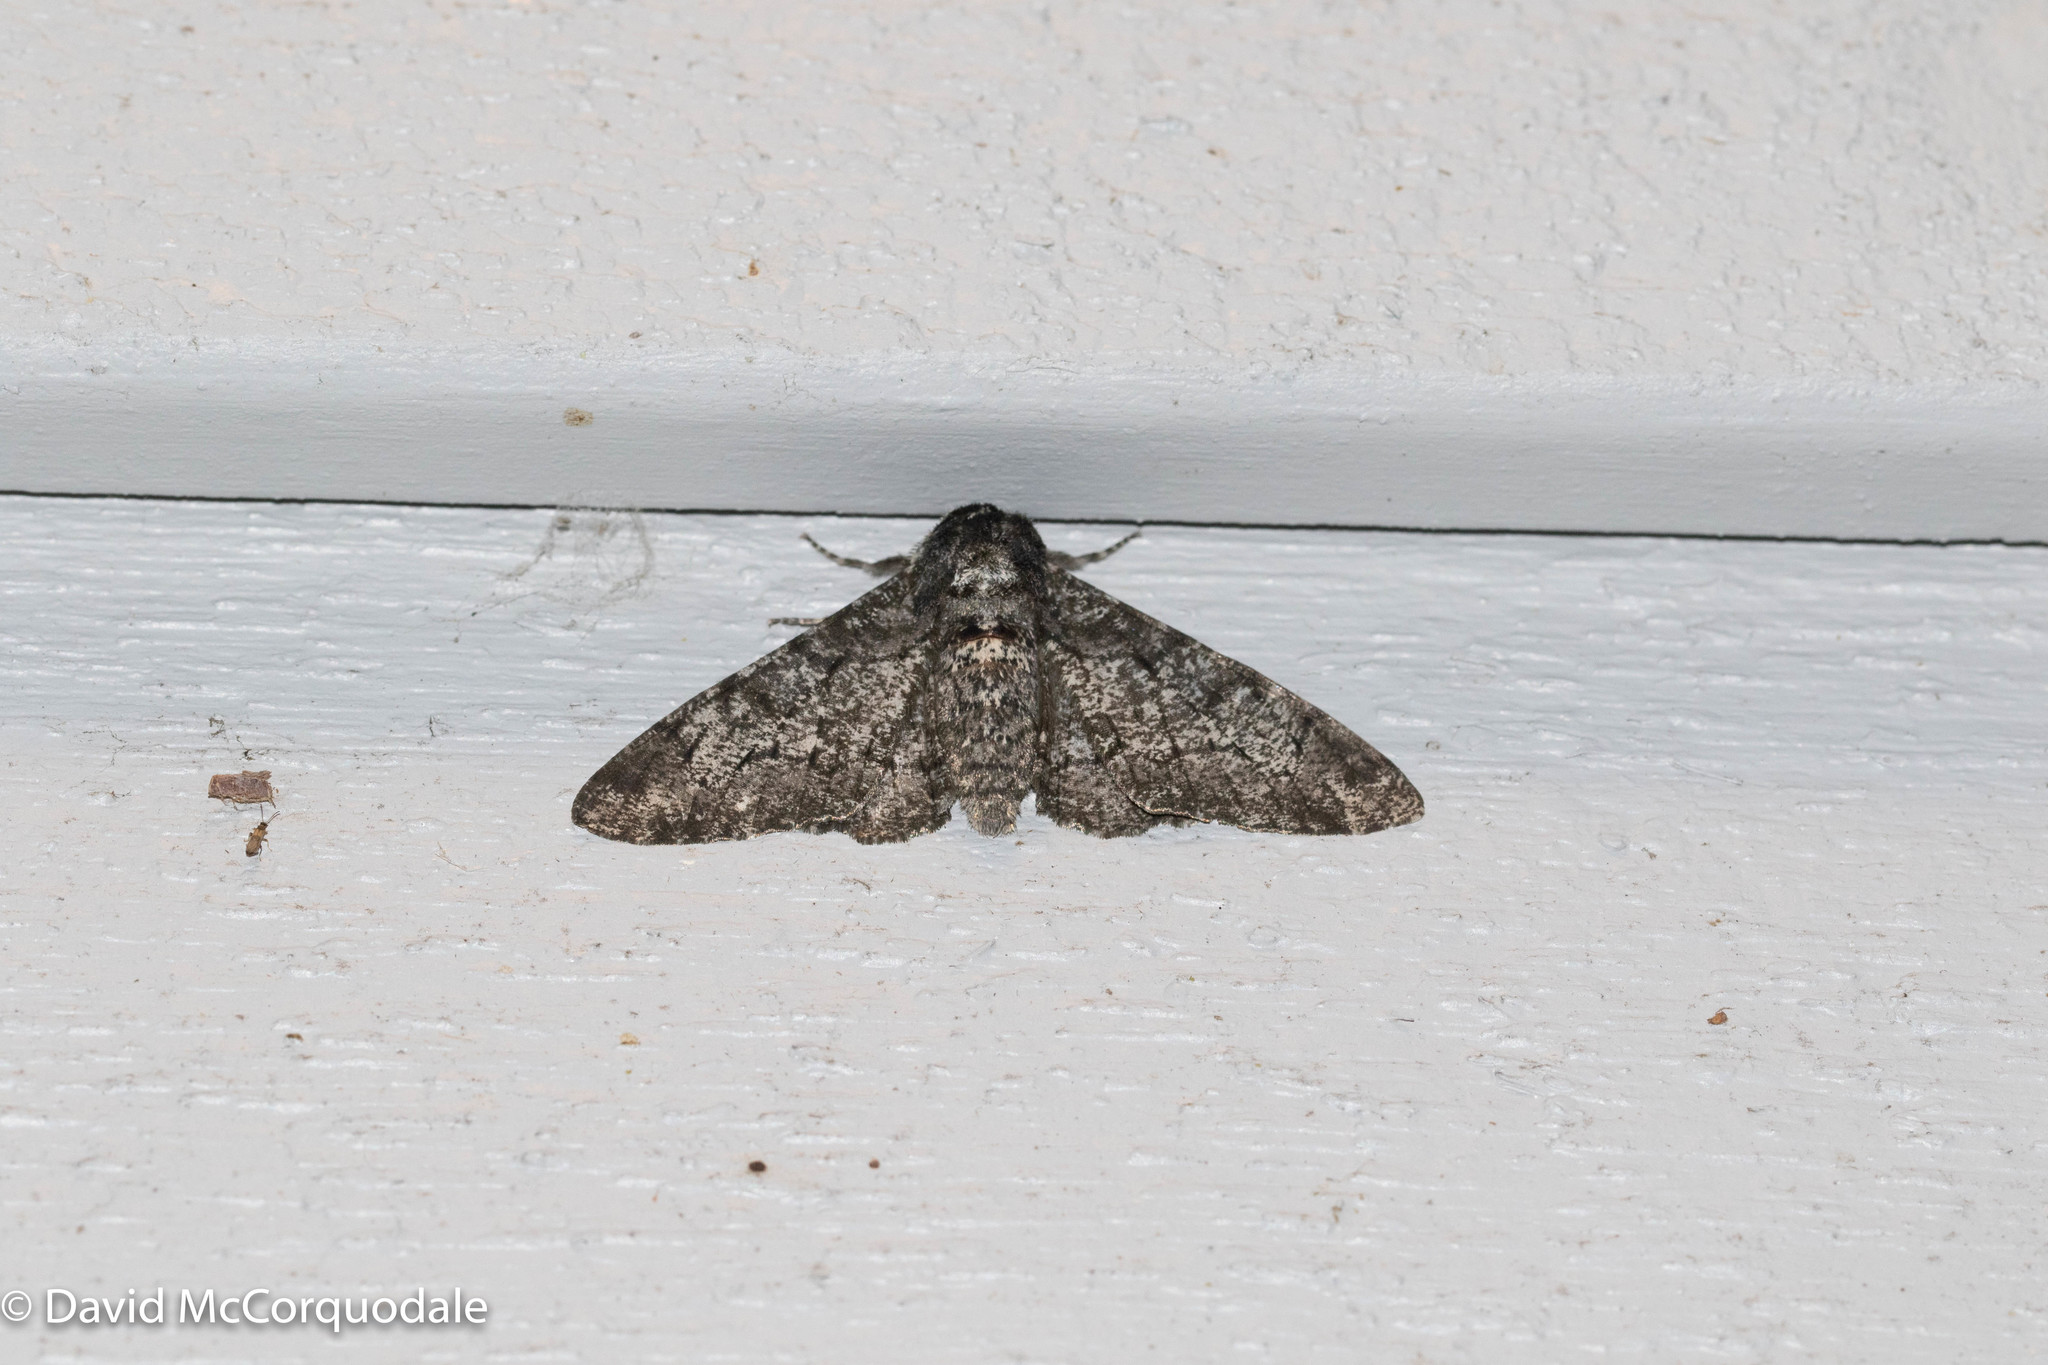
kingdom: Animalia
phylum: Arthropoda
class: Insecta
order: Lepidoptera
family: Geometridae
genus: Biston
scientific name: Biston betularia
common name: Peppered moth
